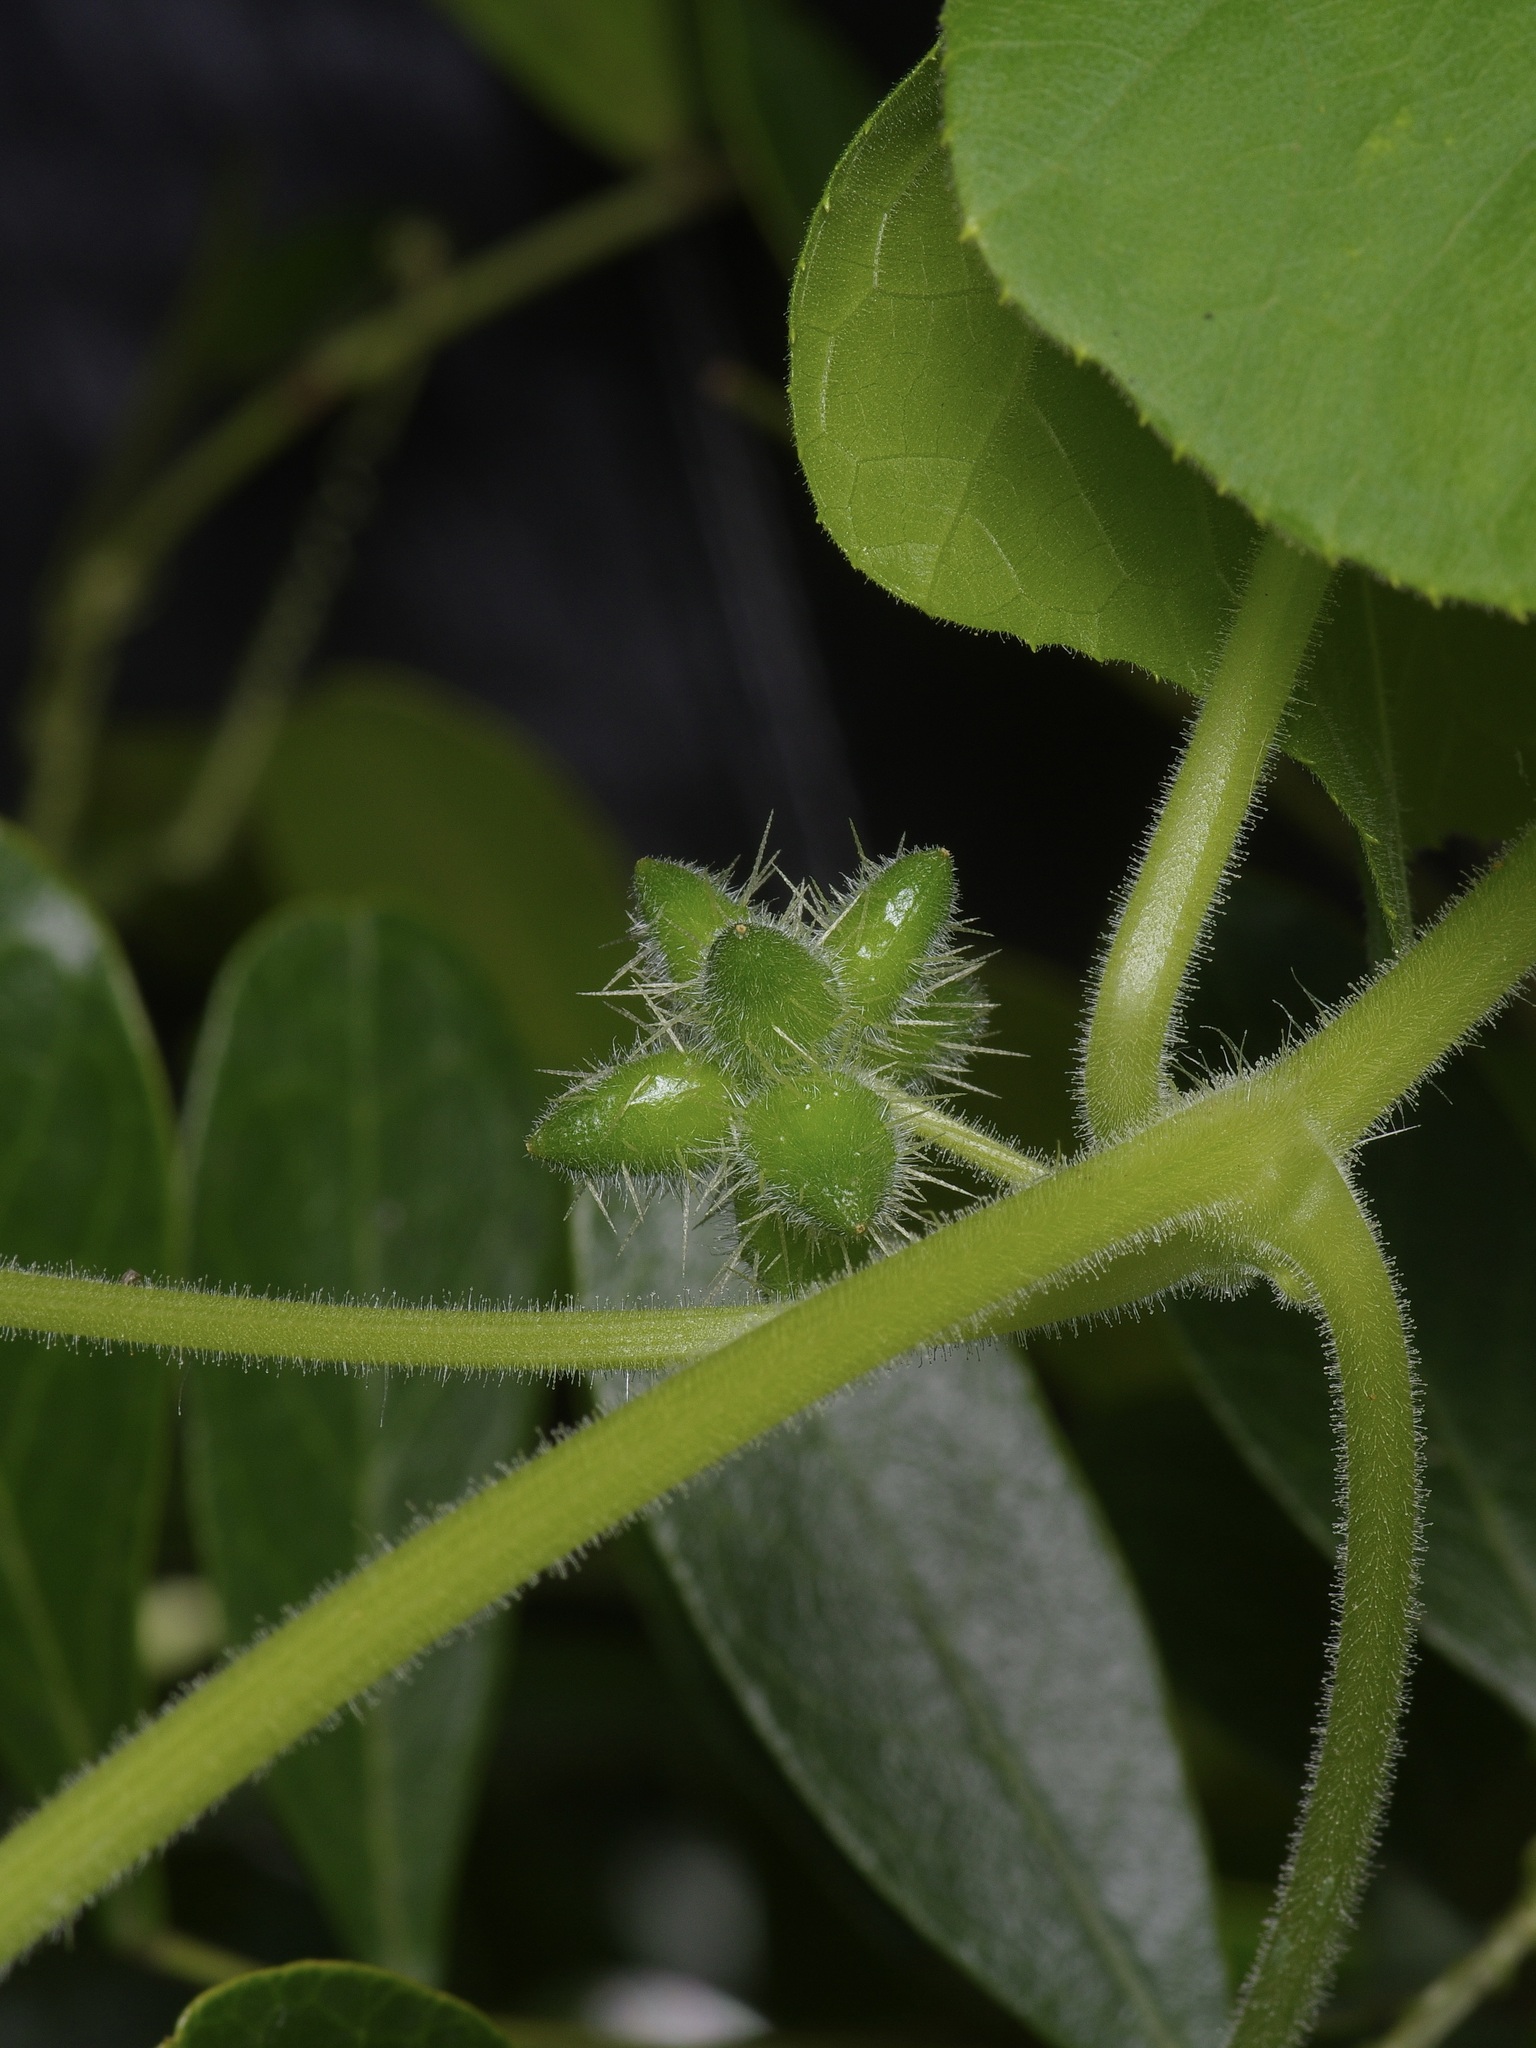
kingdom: Plantae
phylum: Tracheophyta
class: Magnoliopsida
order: Cucurbitales
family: Cucurbitaceae
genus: Sicyos
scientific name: Sicyos angulatus
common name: Angled burr cucumber
